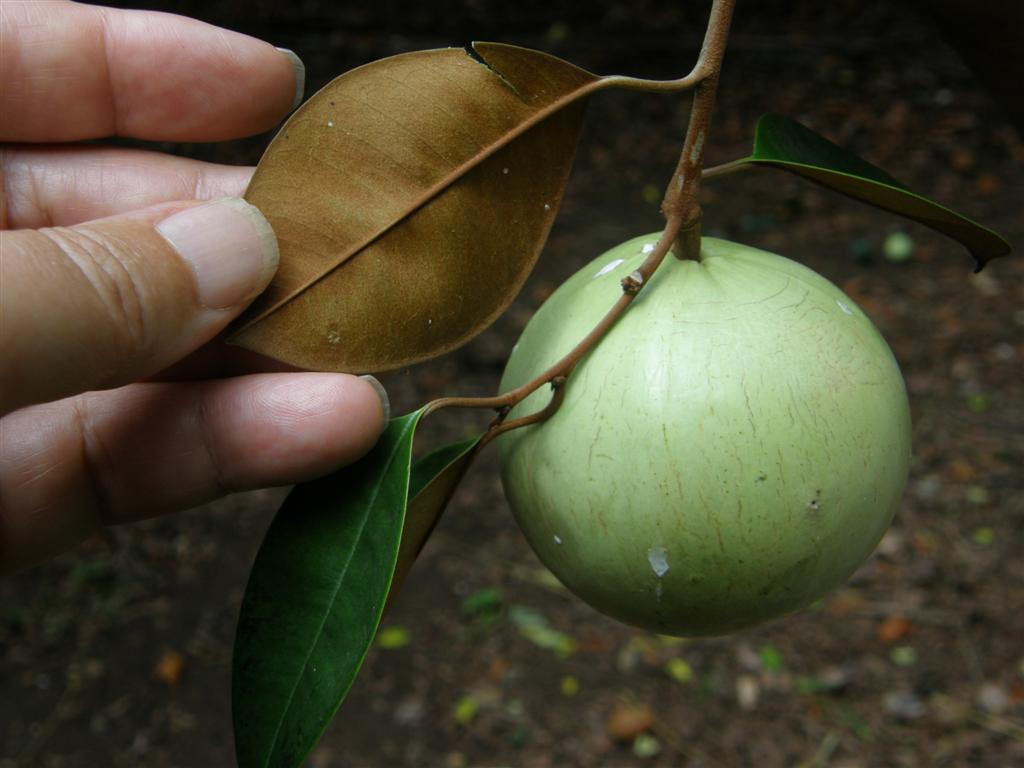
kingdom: Plantae
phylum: Tracheophyta
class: Magnoliopsida
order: Ericales
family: Sapotaceae
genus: Chrysophyllum
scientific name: Chrysophyllum cainito
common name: Star-apple
